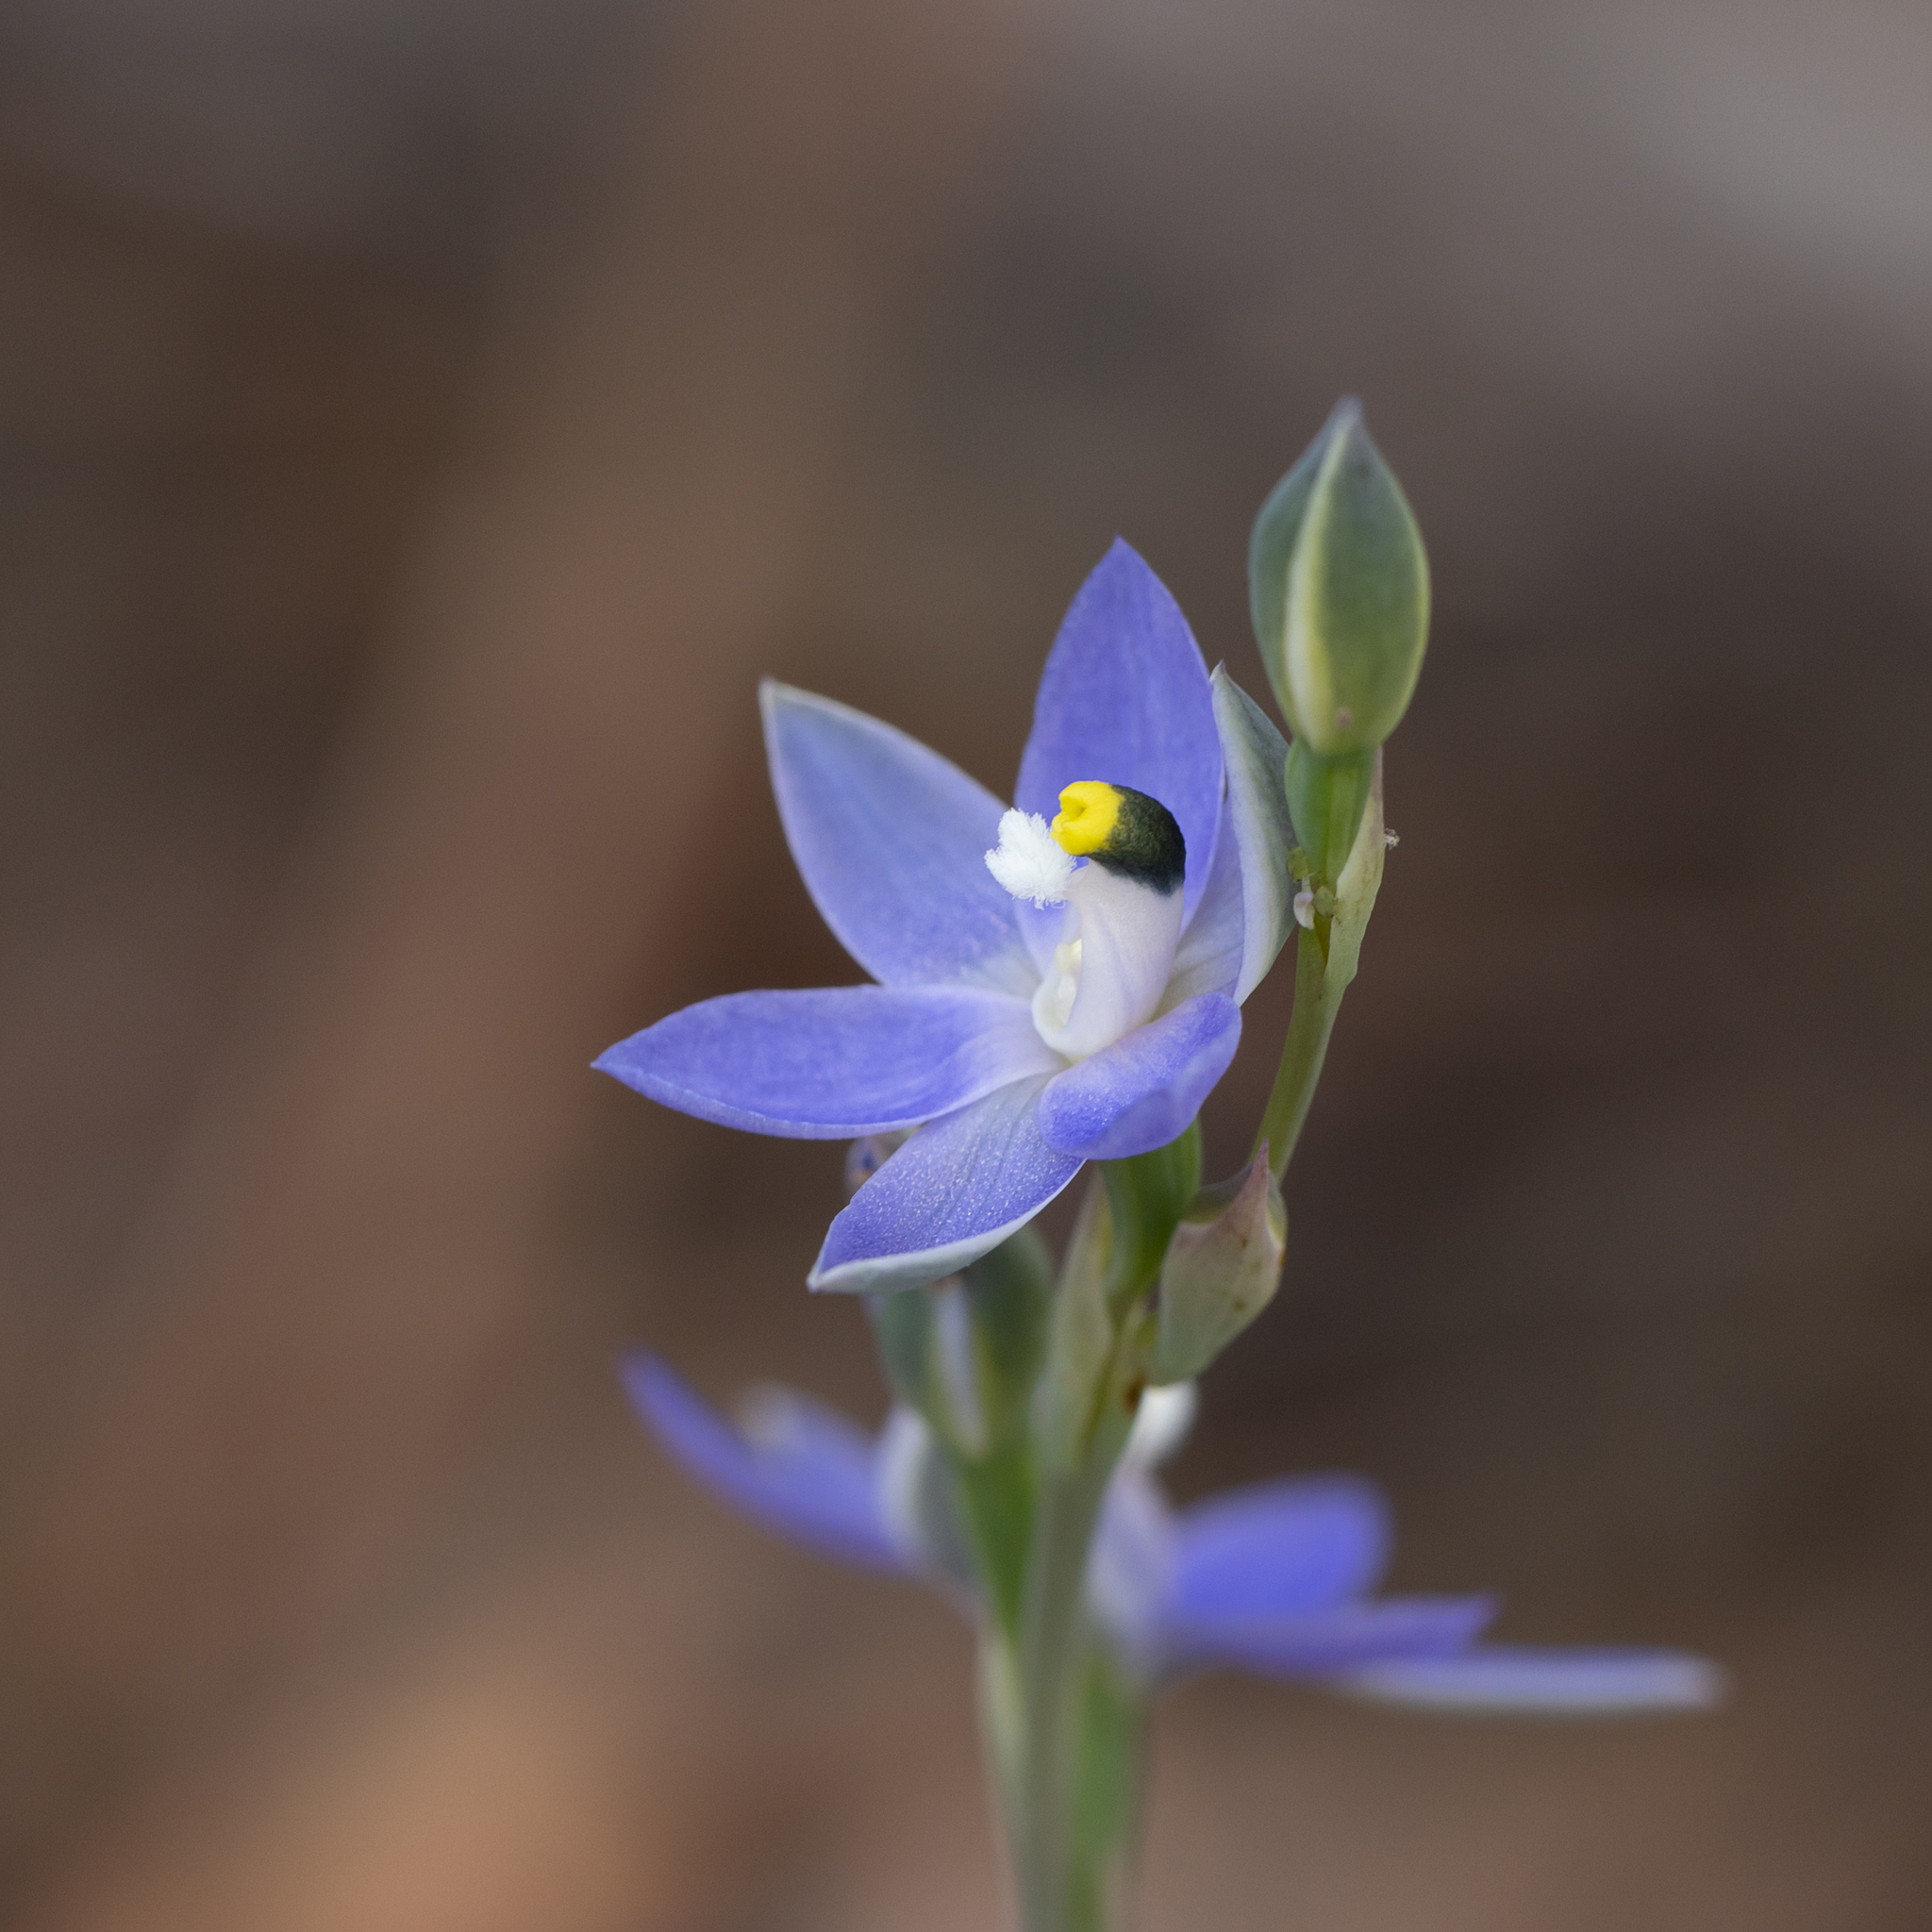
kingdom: Plantae
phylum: Tracheophyta
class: Liliopsida
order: Asparagales
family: Orchidaceae
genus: Thelymitra
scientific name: Thelymitra graminea
